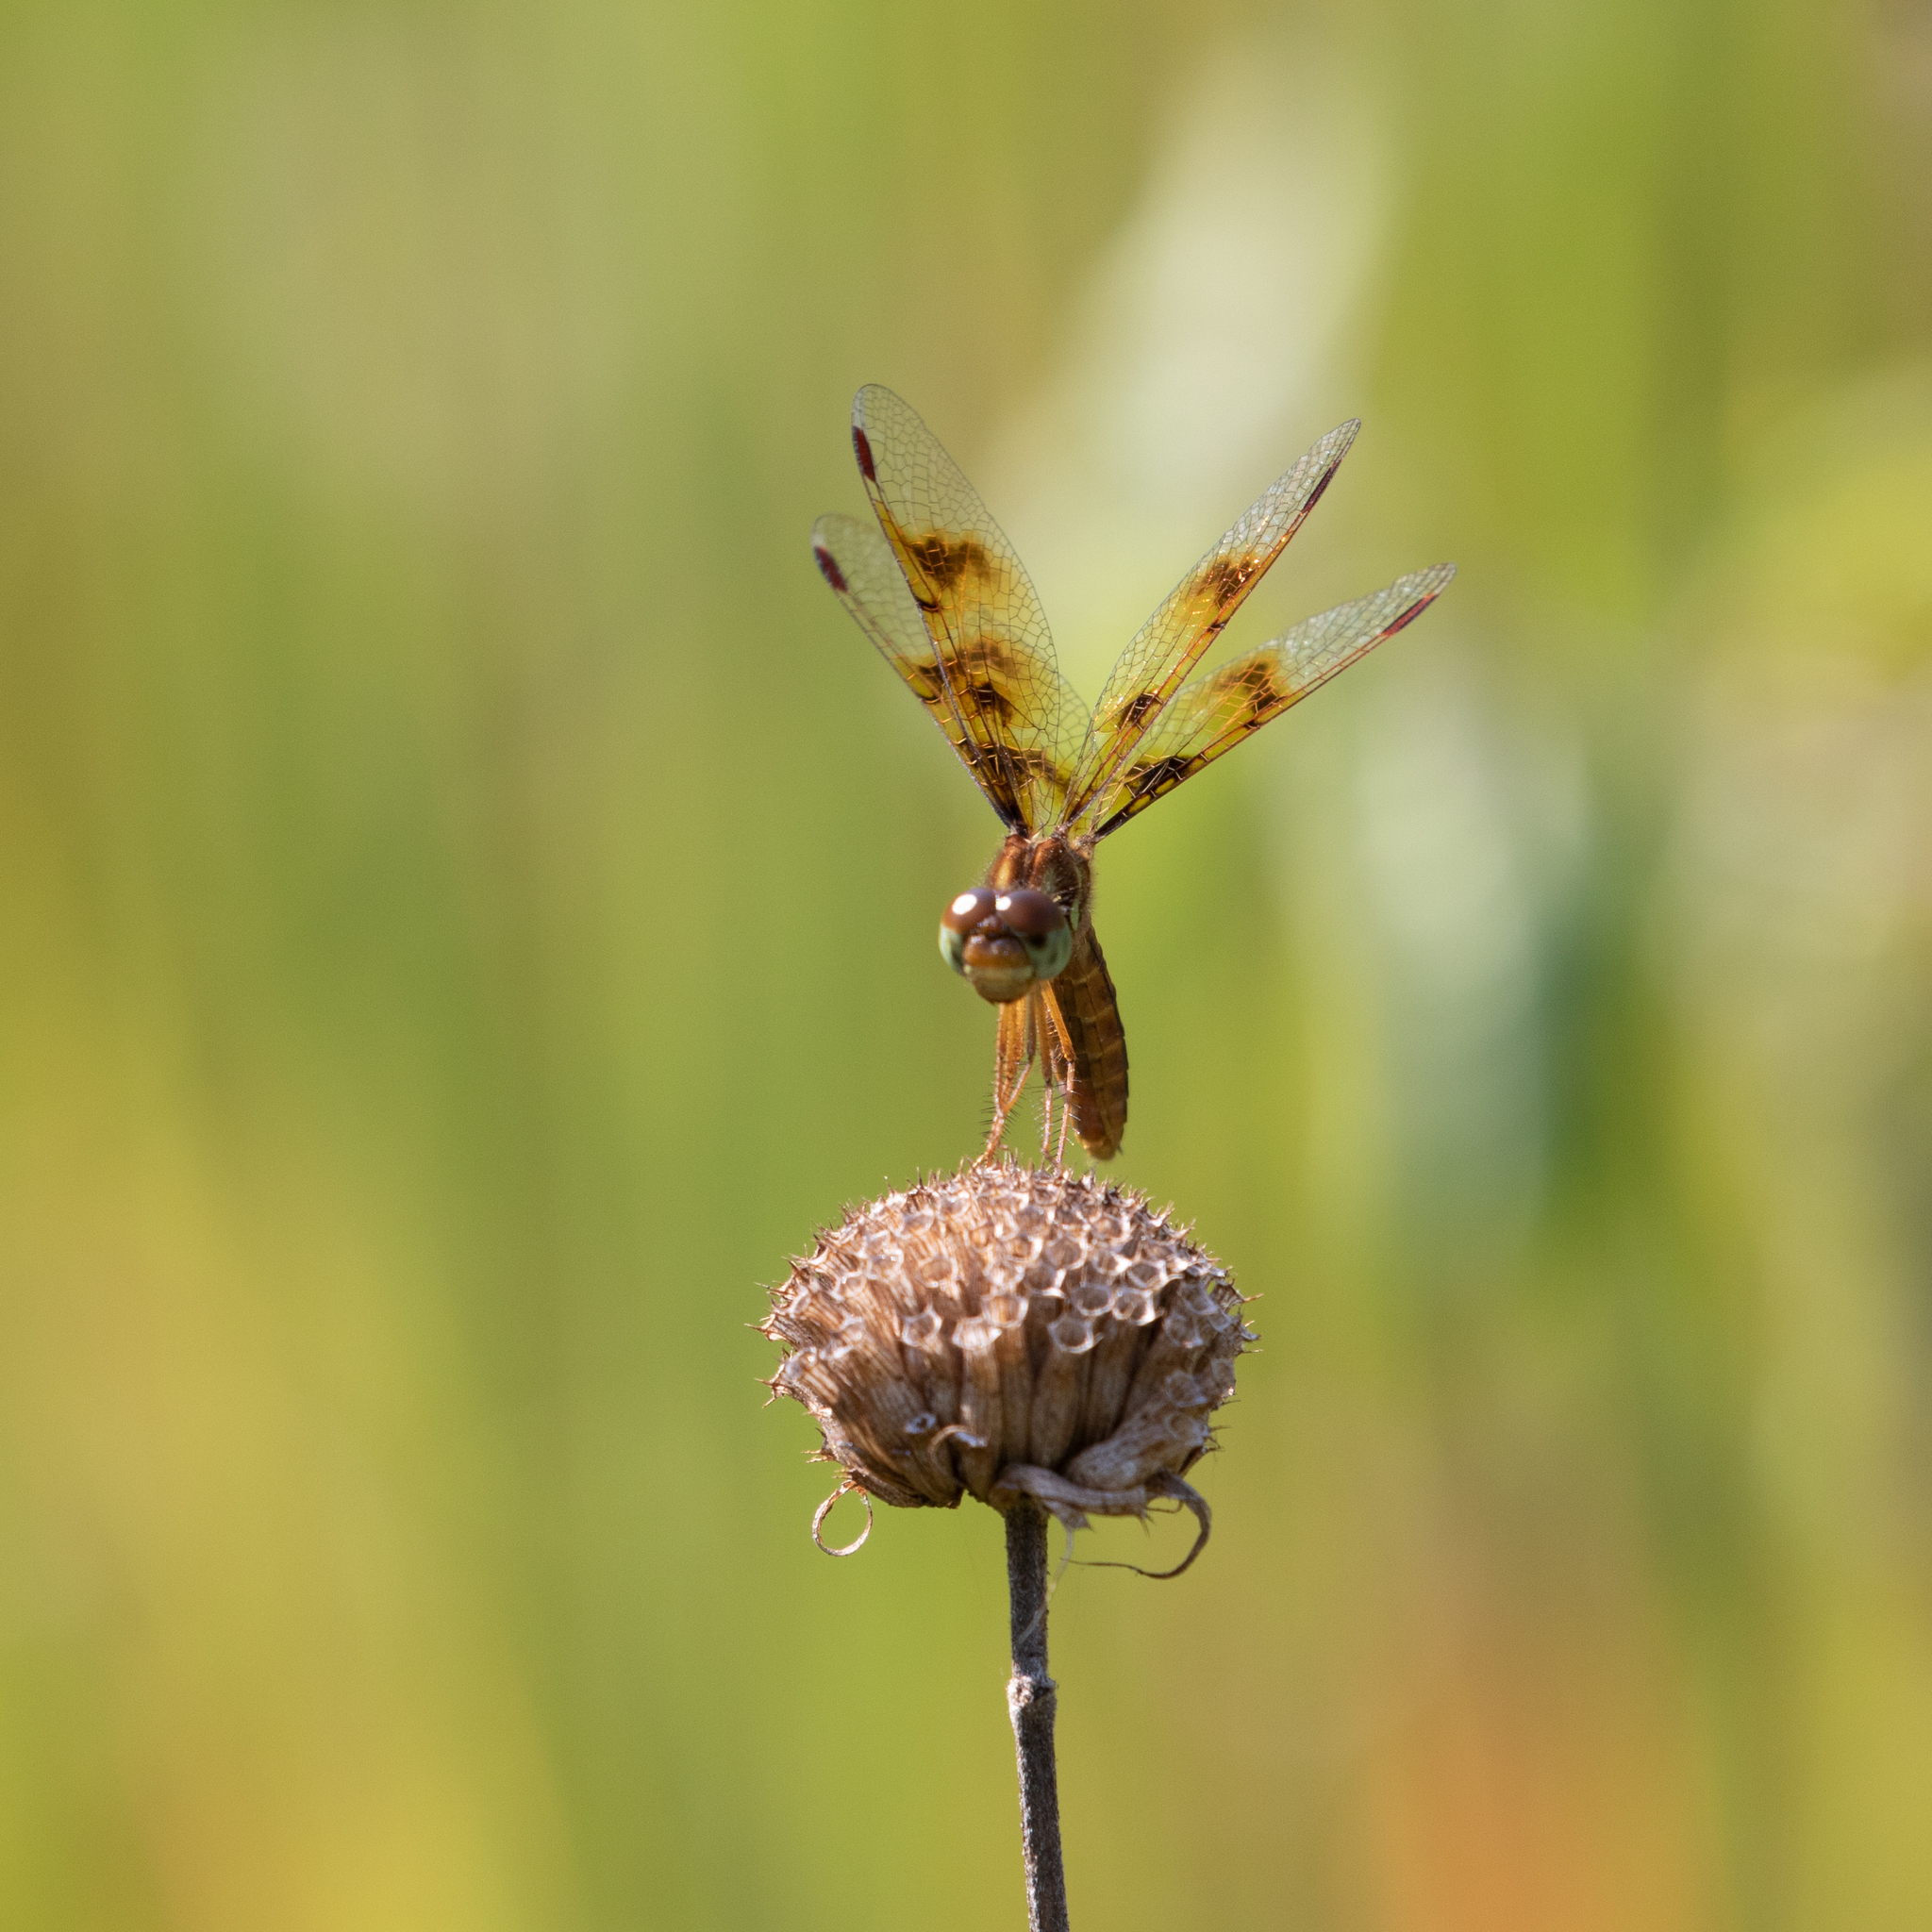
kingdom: Animalia
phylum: Arthropoda
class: Insecta
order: Odonata
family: Libellulidae
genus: Perithemis
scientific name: Perithemis tenera
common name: Eastern amberwing
